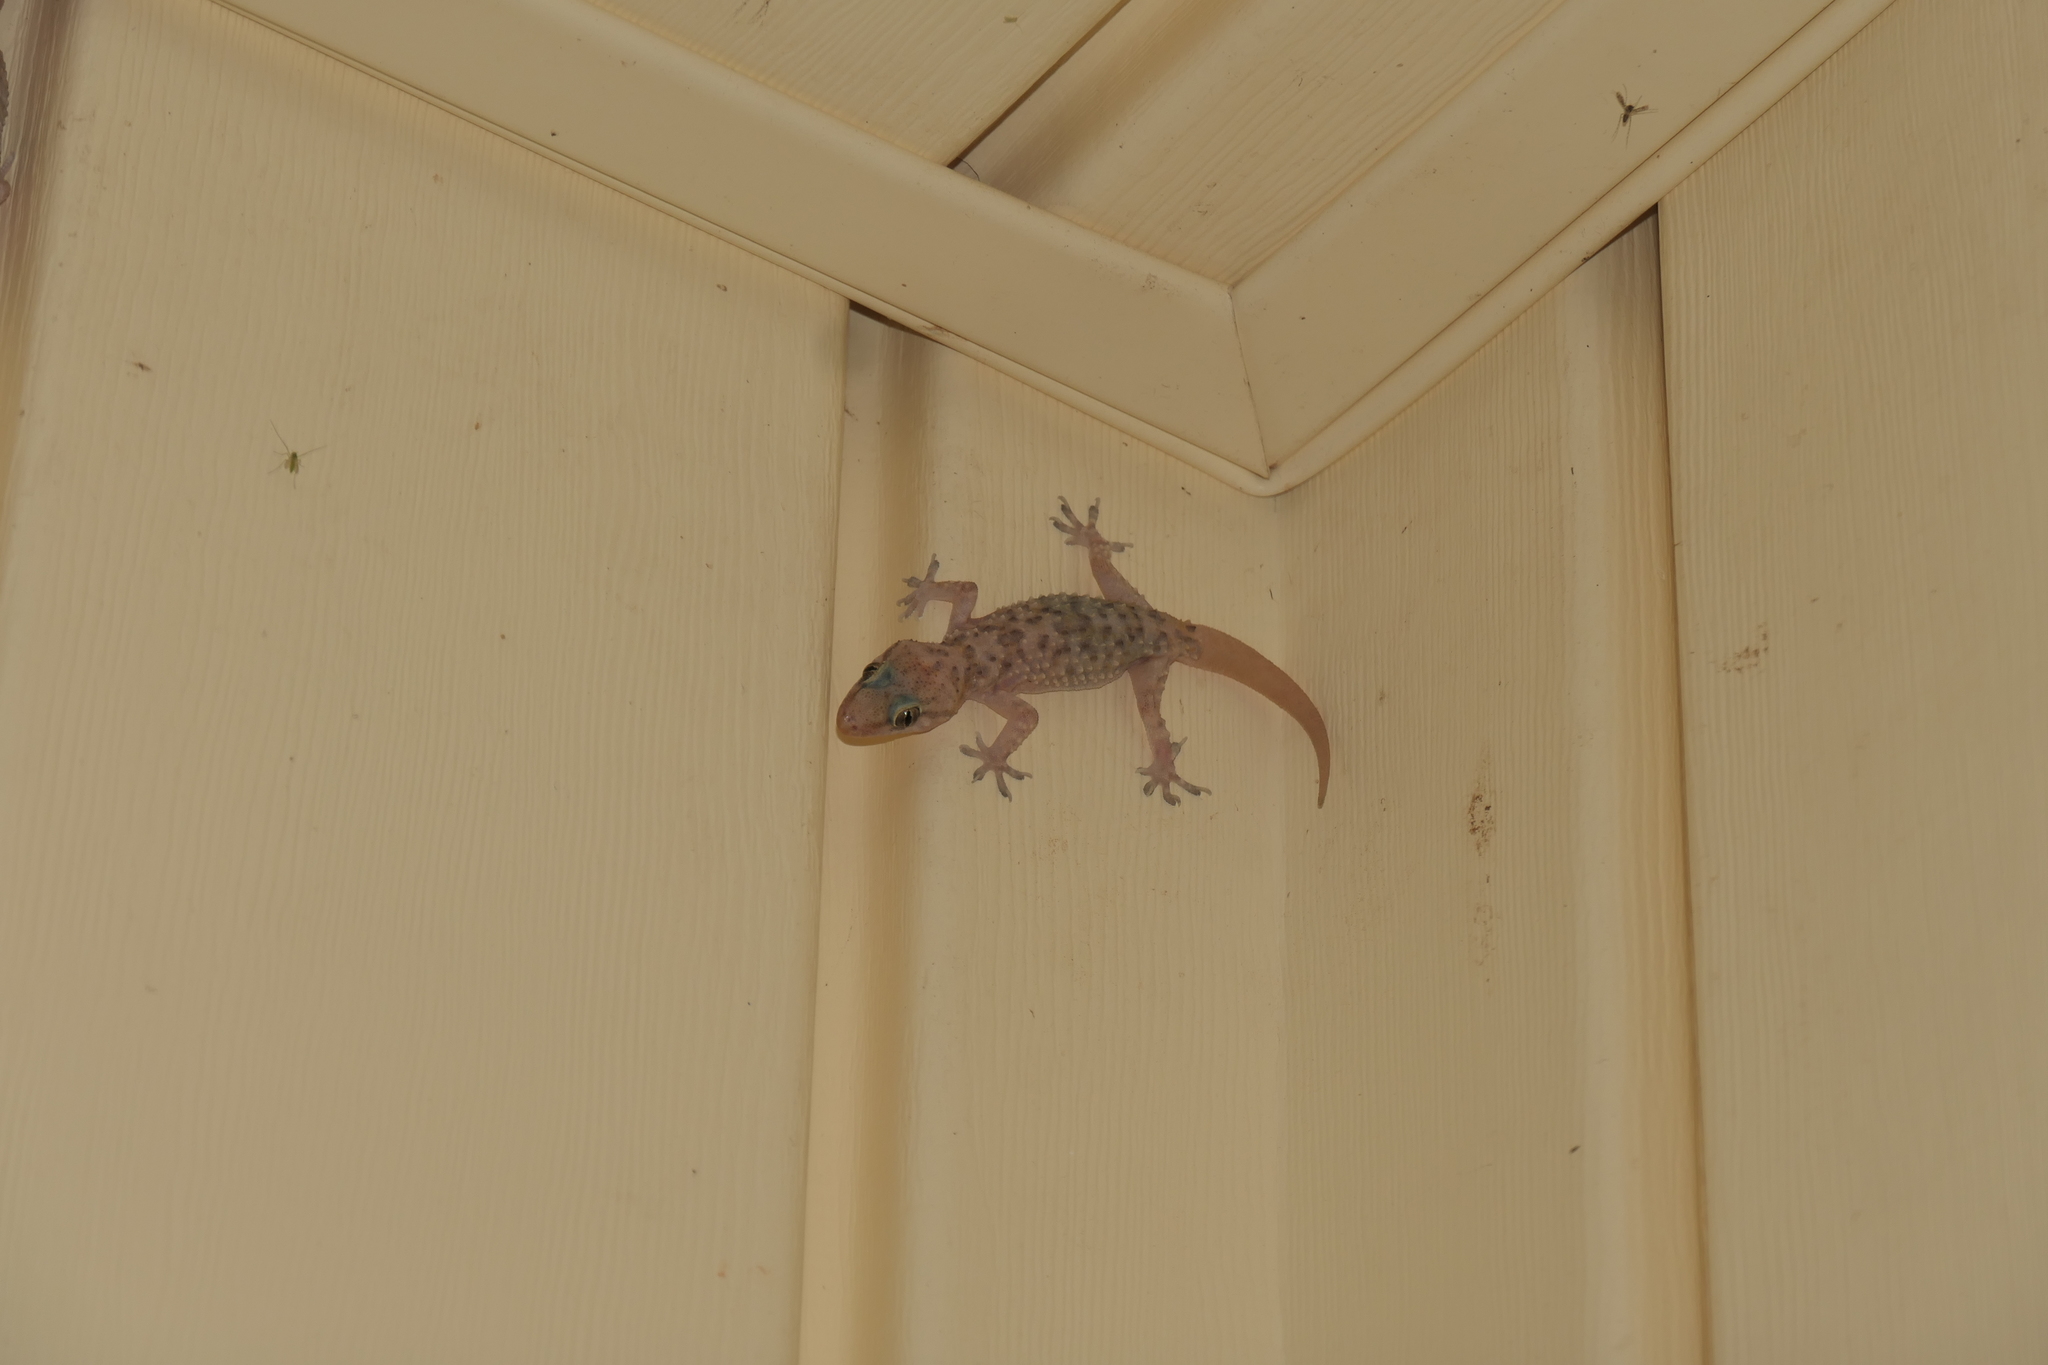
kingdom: Animalia
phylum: Chordata
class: Squamata
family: Gekkonidae
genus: Hemidactylus
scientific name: Hemidactylus turcicus
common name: Turkish gecko
